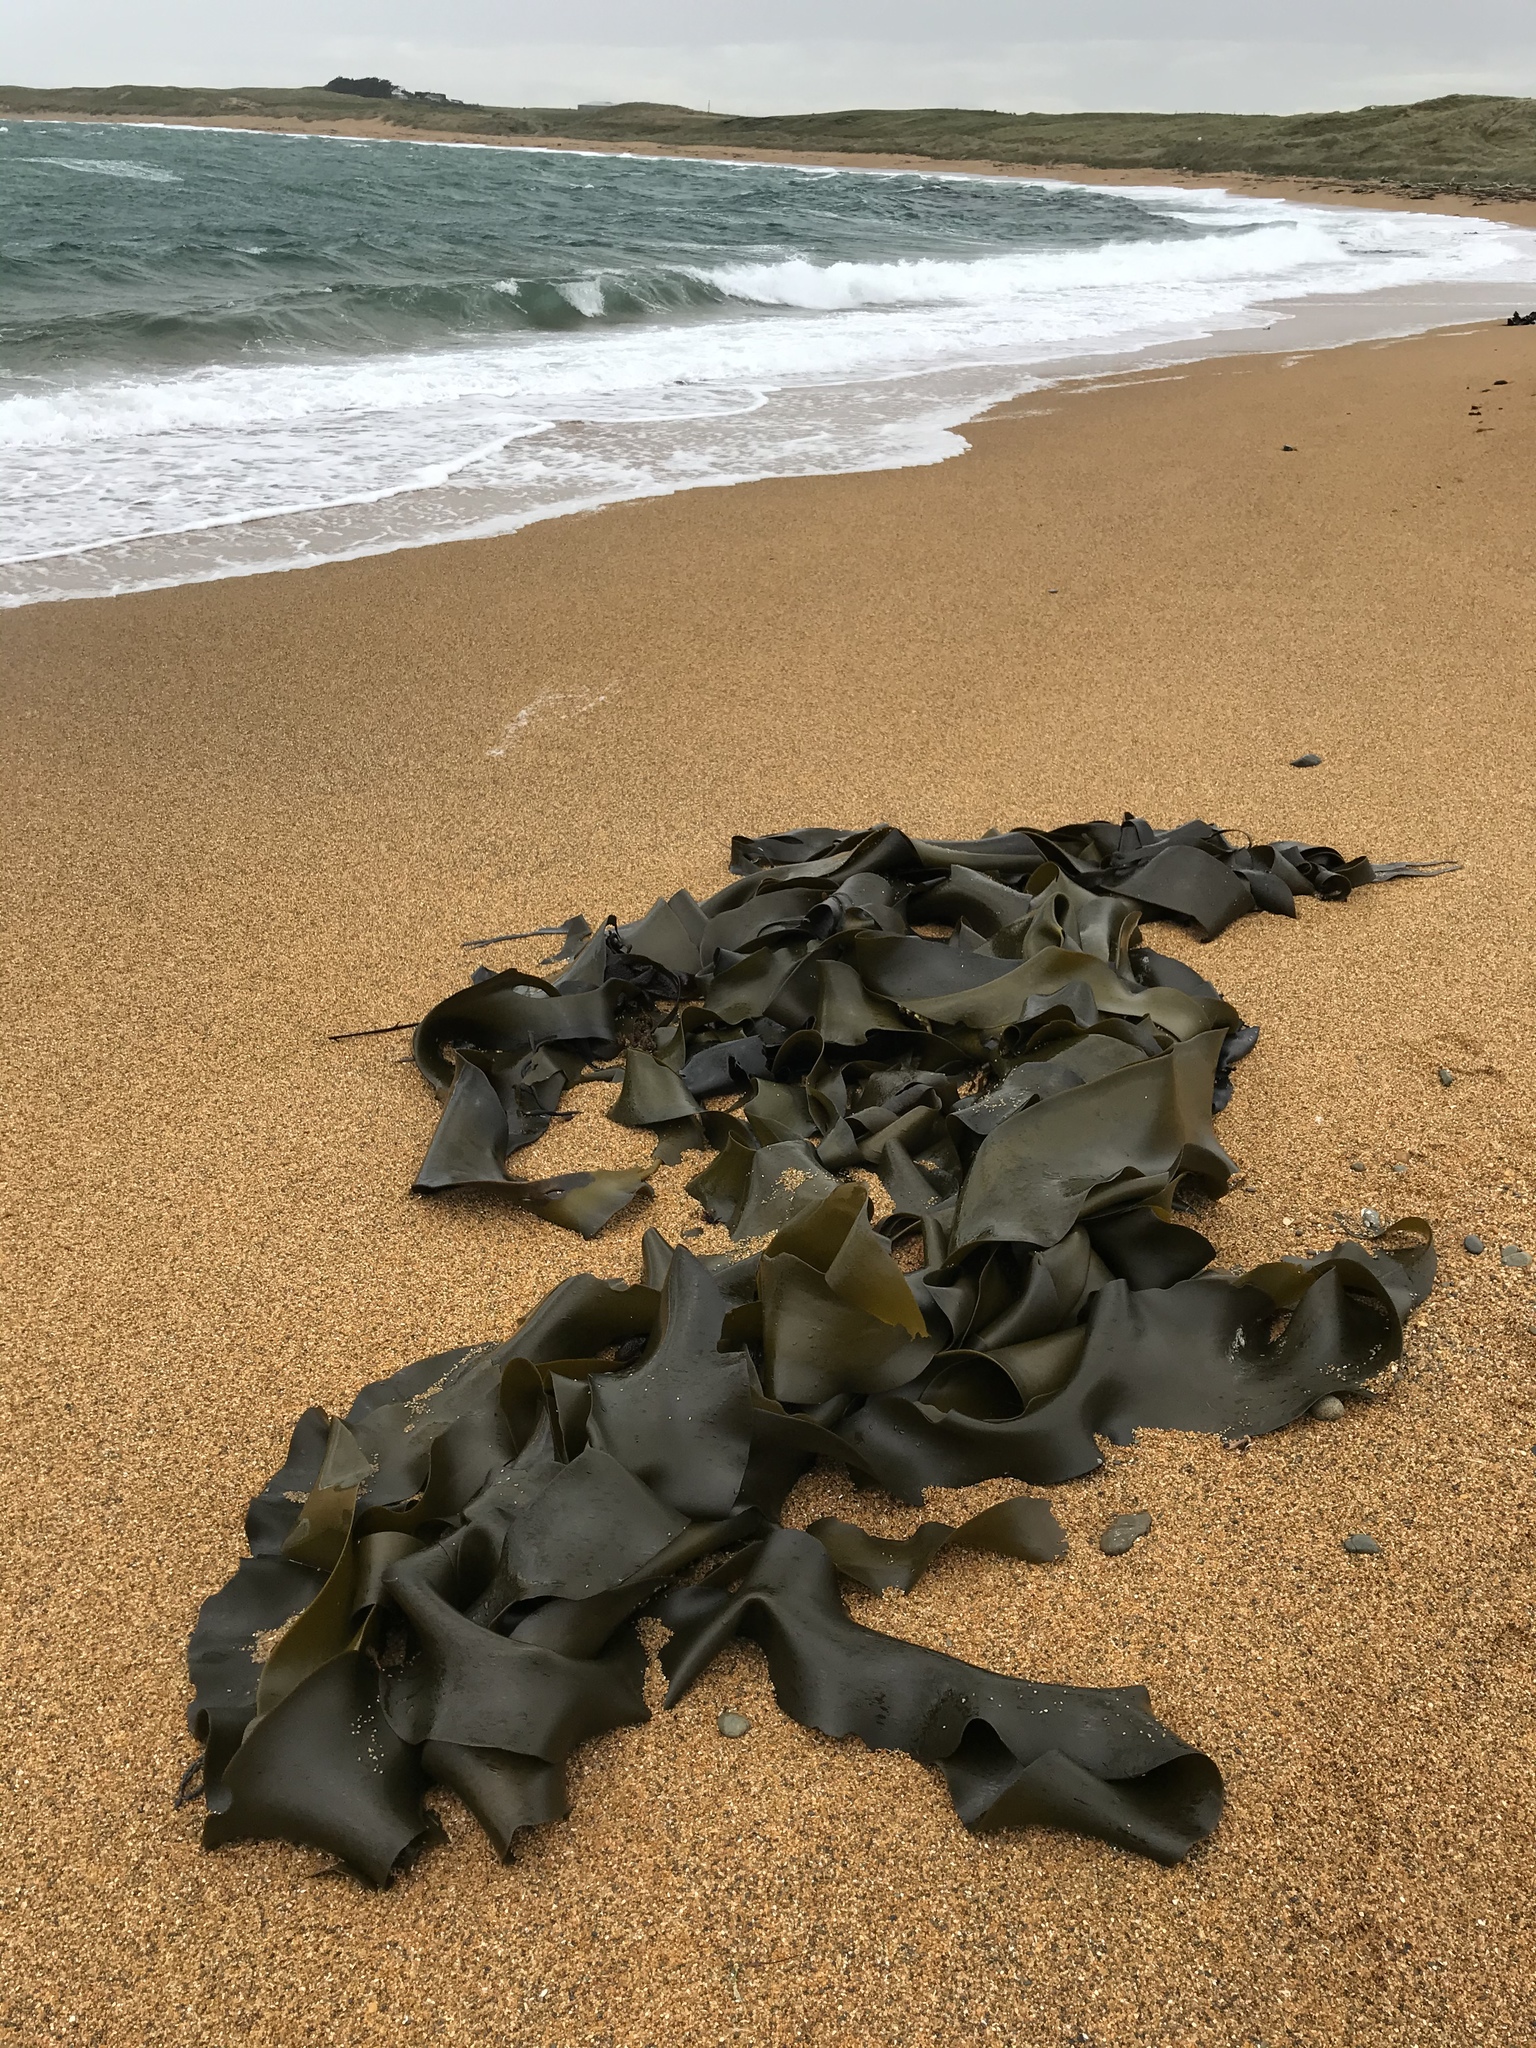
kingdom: Chromista
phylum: Ochrophyta
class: Phaeophyceae
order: Fucales
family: Durvillaeaceae
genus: Durvillaea
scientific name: Durvillaea antarctica
